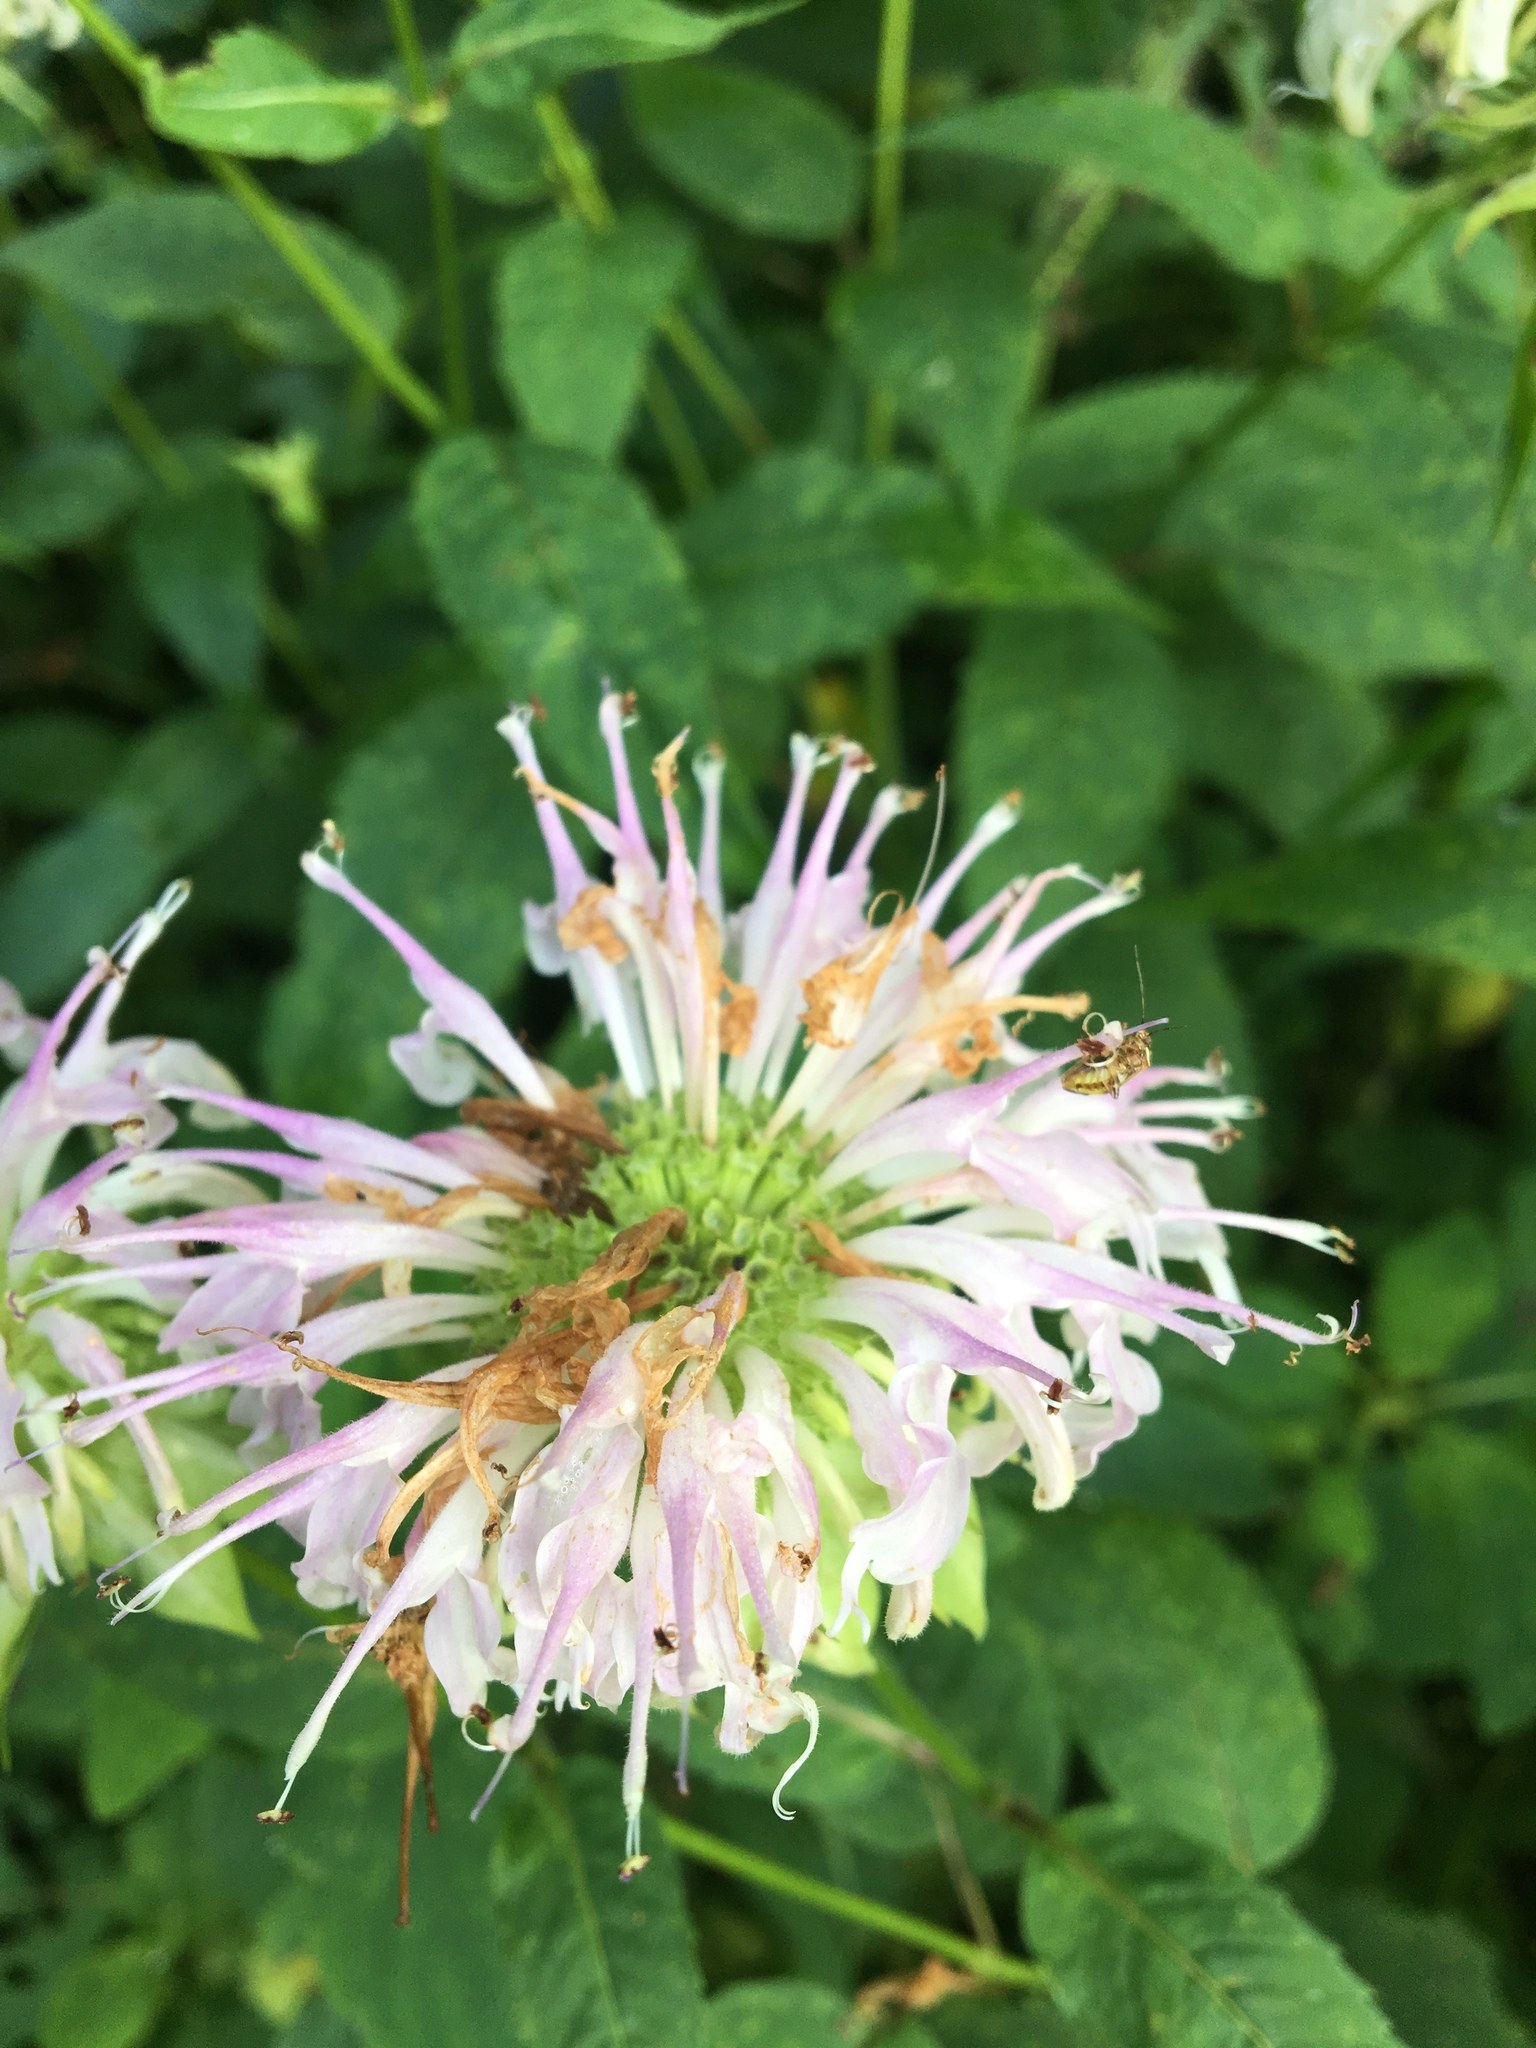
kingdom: Plantae
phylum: Tracheophyta
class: Magnoliopsida
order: Lamiales
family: Lamiaceae
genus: Monarda
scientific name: Monarda fistulosa
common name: Purple beebalm
